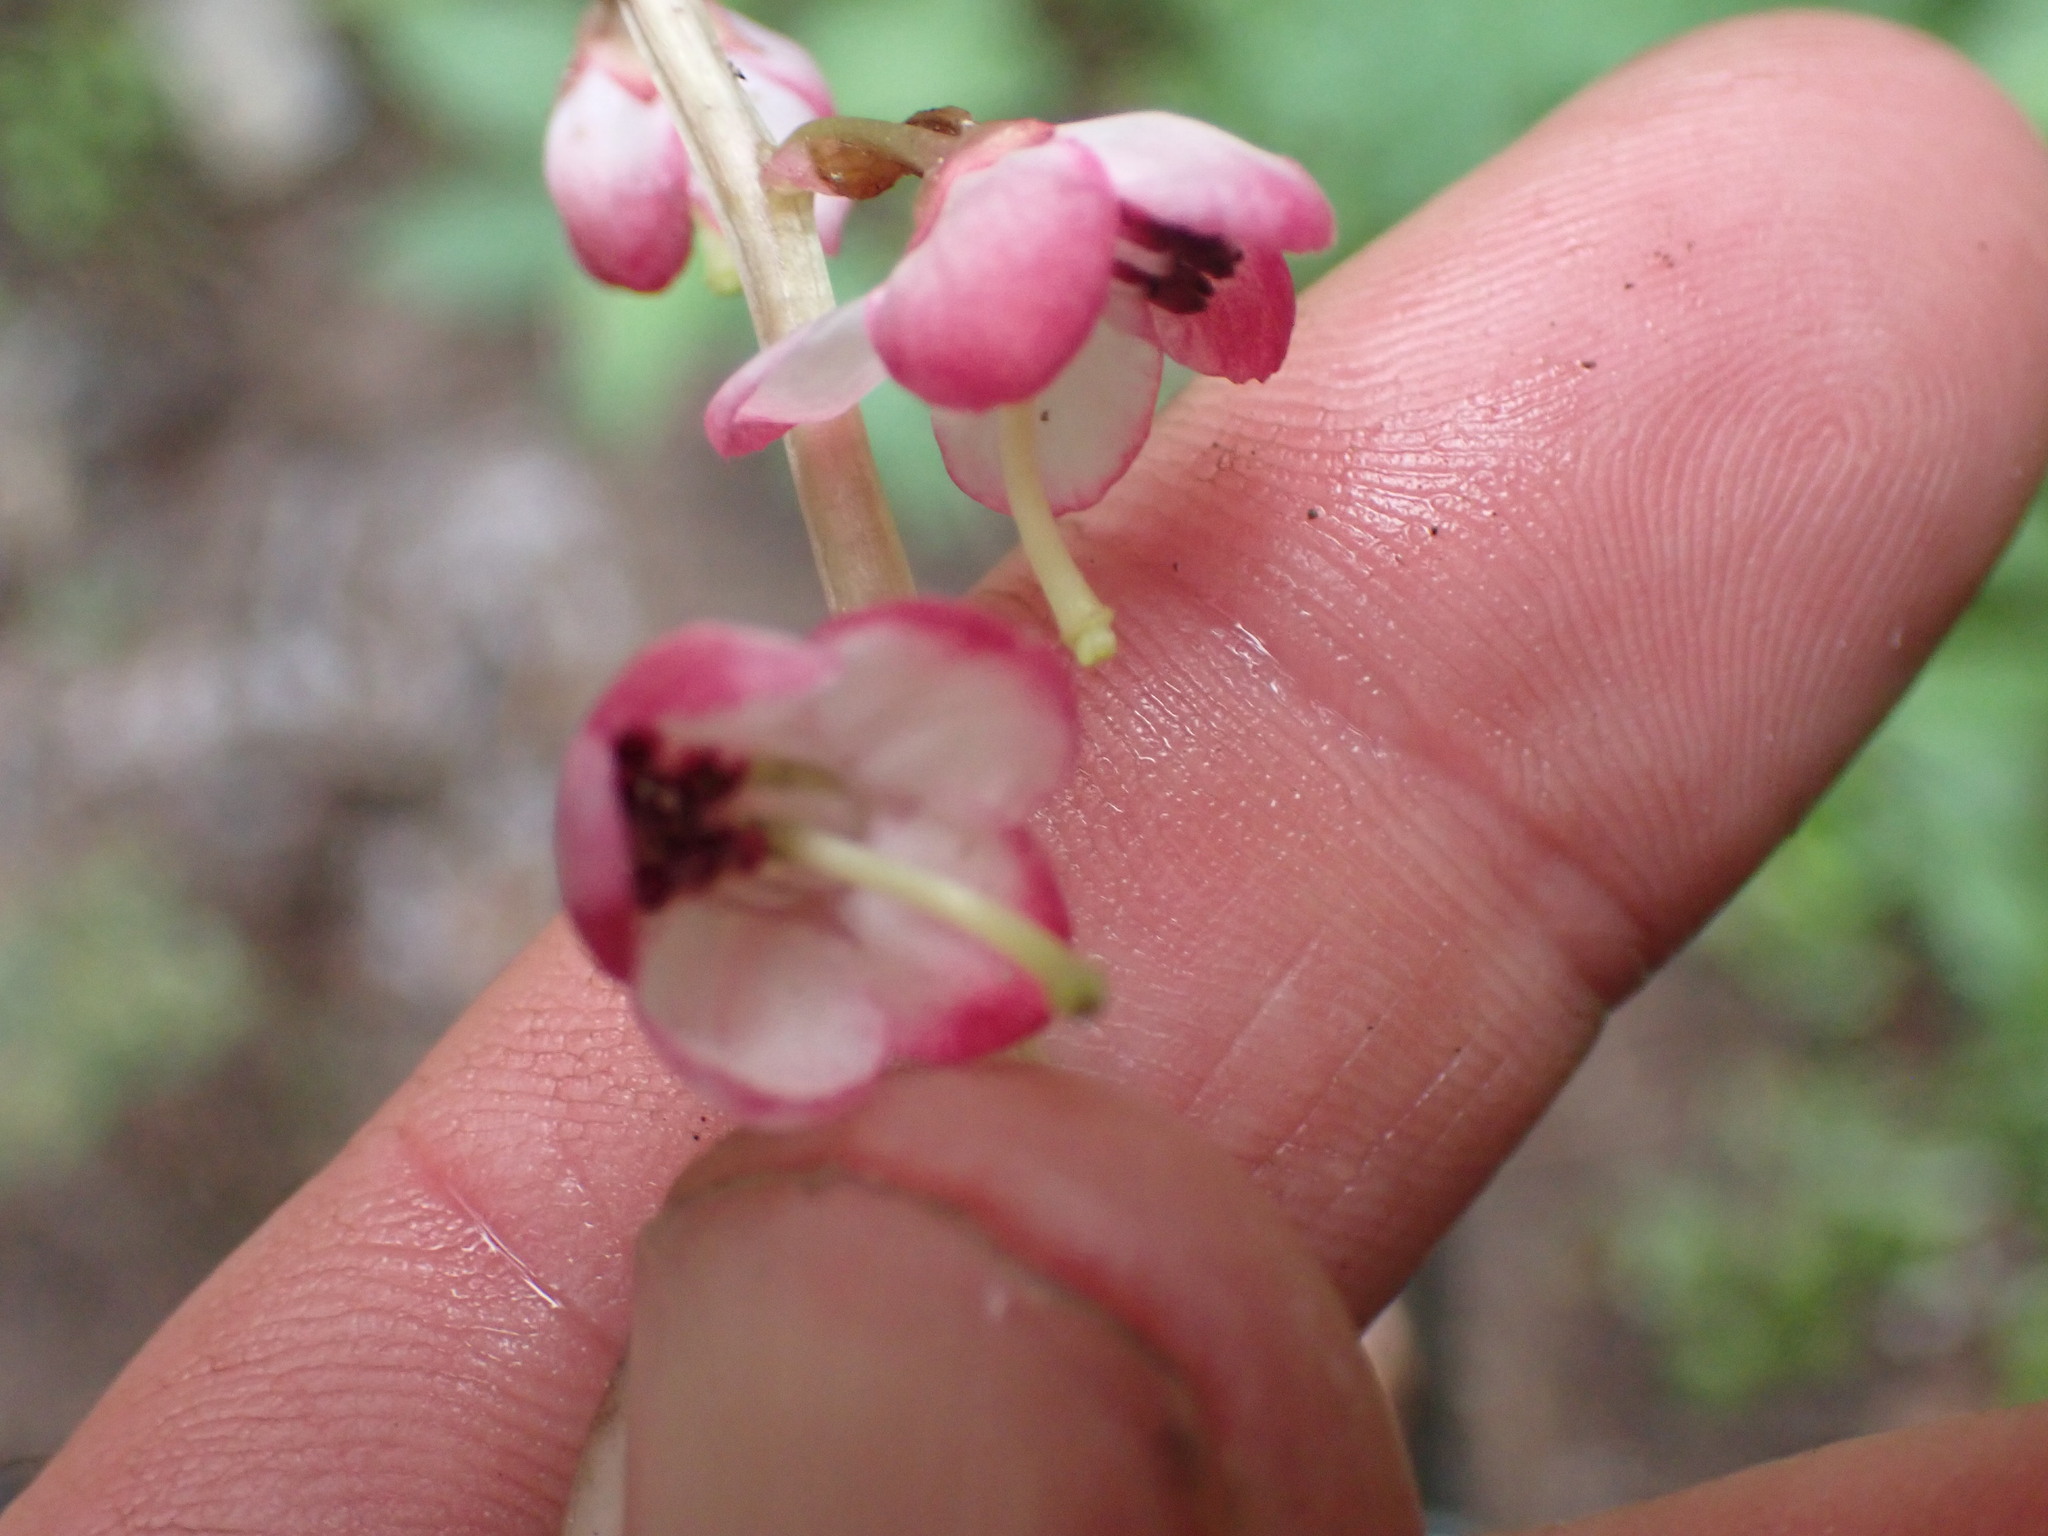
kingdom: Plantae
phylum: Tracheophyta
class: Magnoliopsida
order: Ericales
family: Ericaceae
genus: Pyrola
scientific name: Pyrola asarifolia
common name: Bog wintergreen
